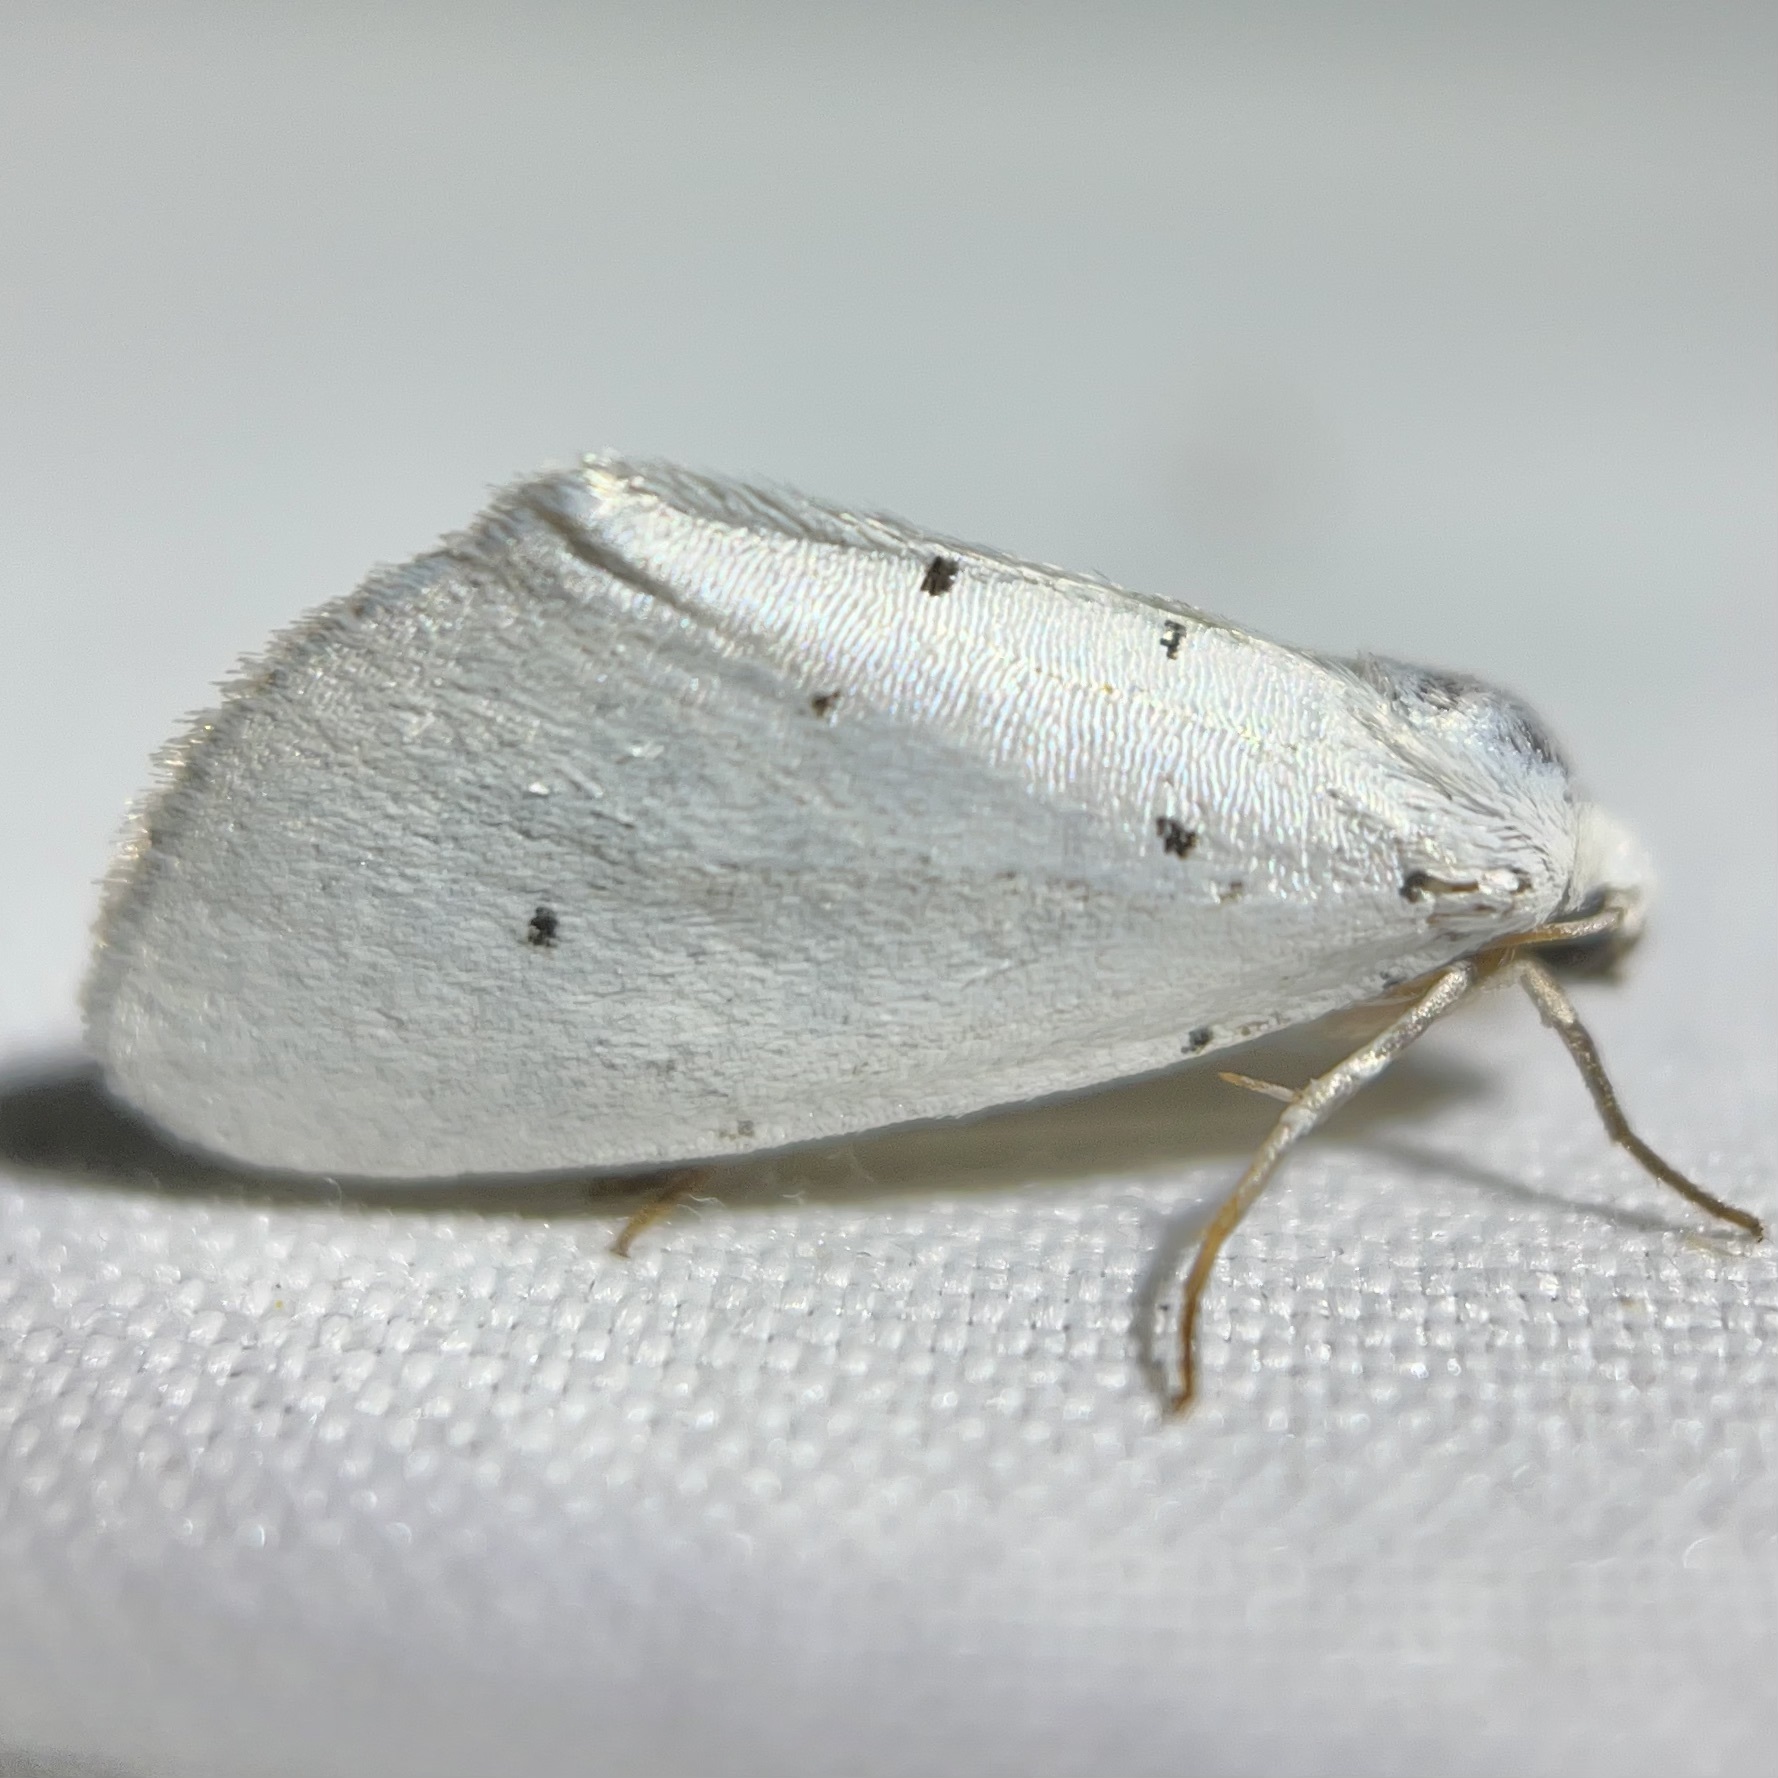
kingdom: Animalia
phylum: Arthropoda
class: Insecta
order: Lepidoptera
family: Noctuidae
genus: Grotella
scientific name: Grotella blanca
